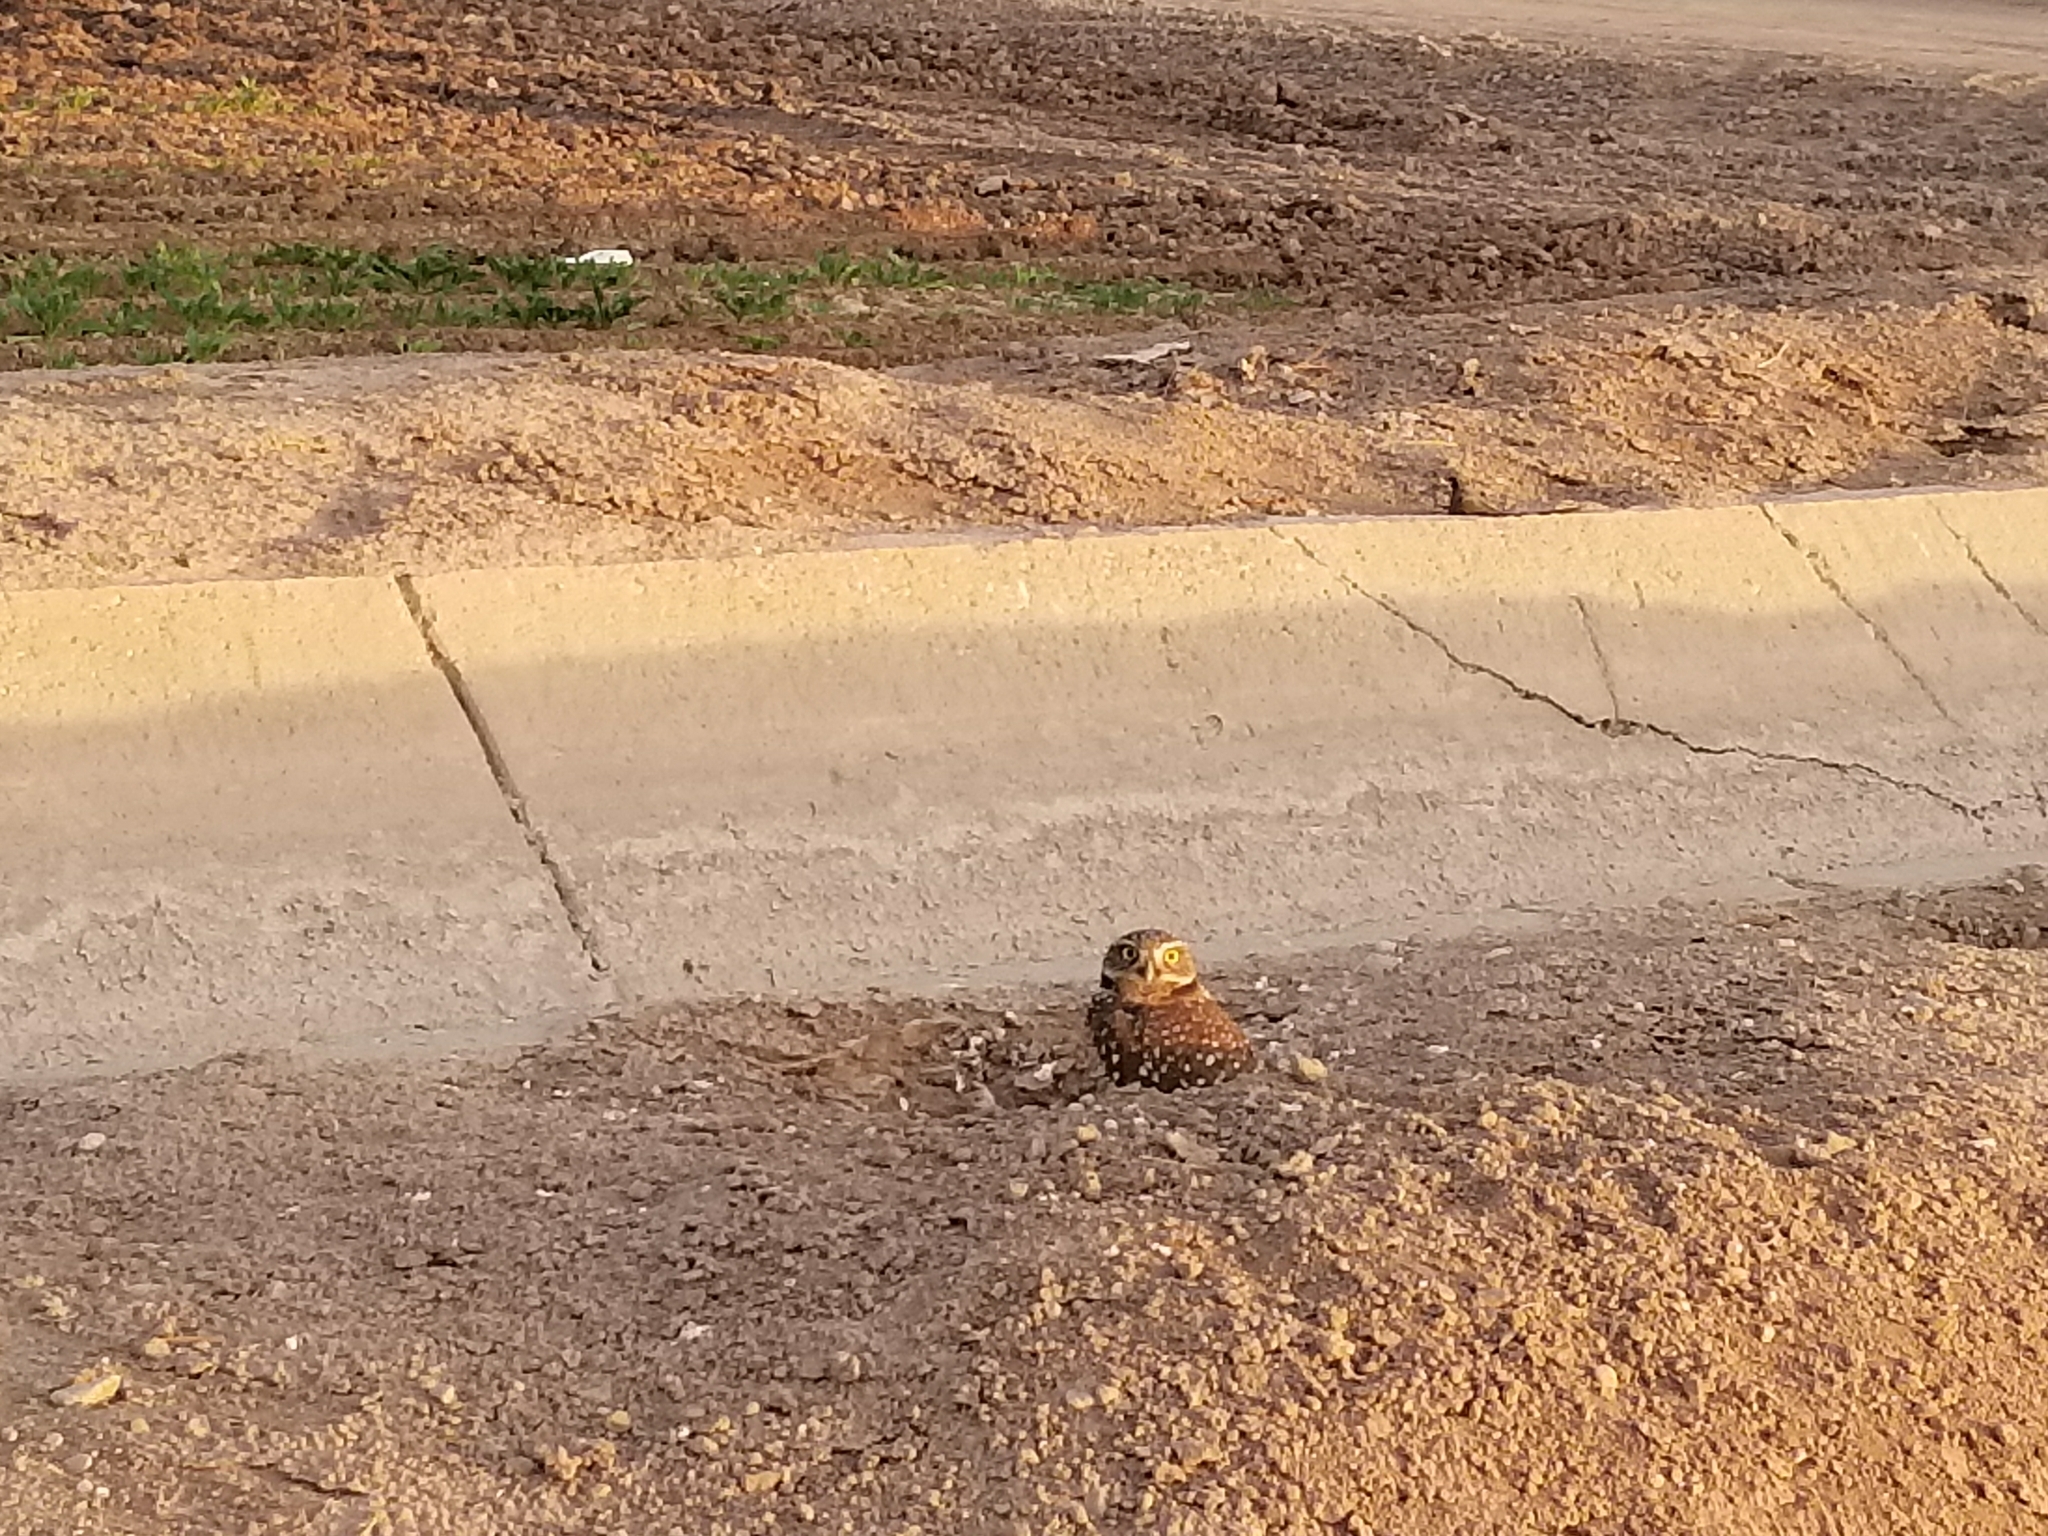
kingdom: Animalia
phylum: Chordata
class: Aves
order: Strigiformes
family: Strigidae
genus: Athene
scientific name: Athene cunicularia
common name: Burrowing owl
